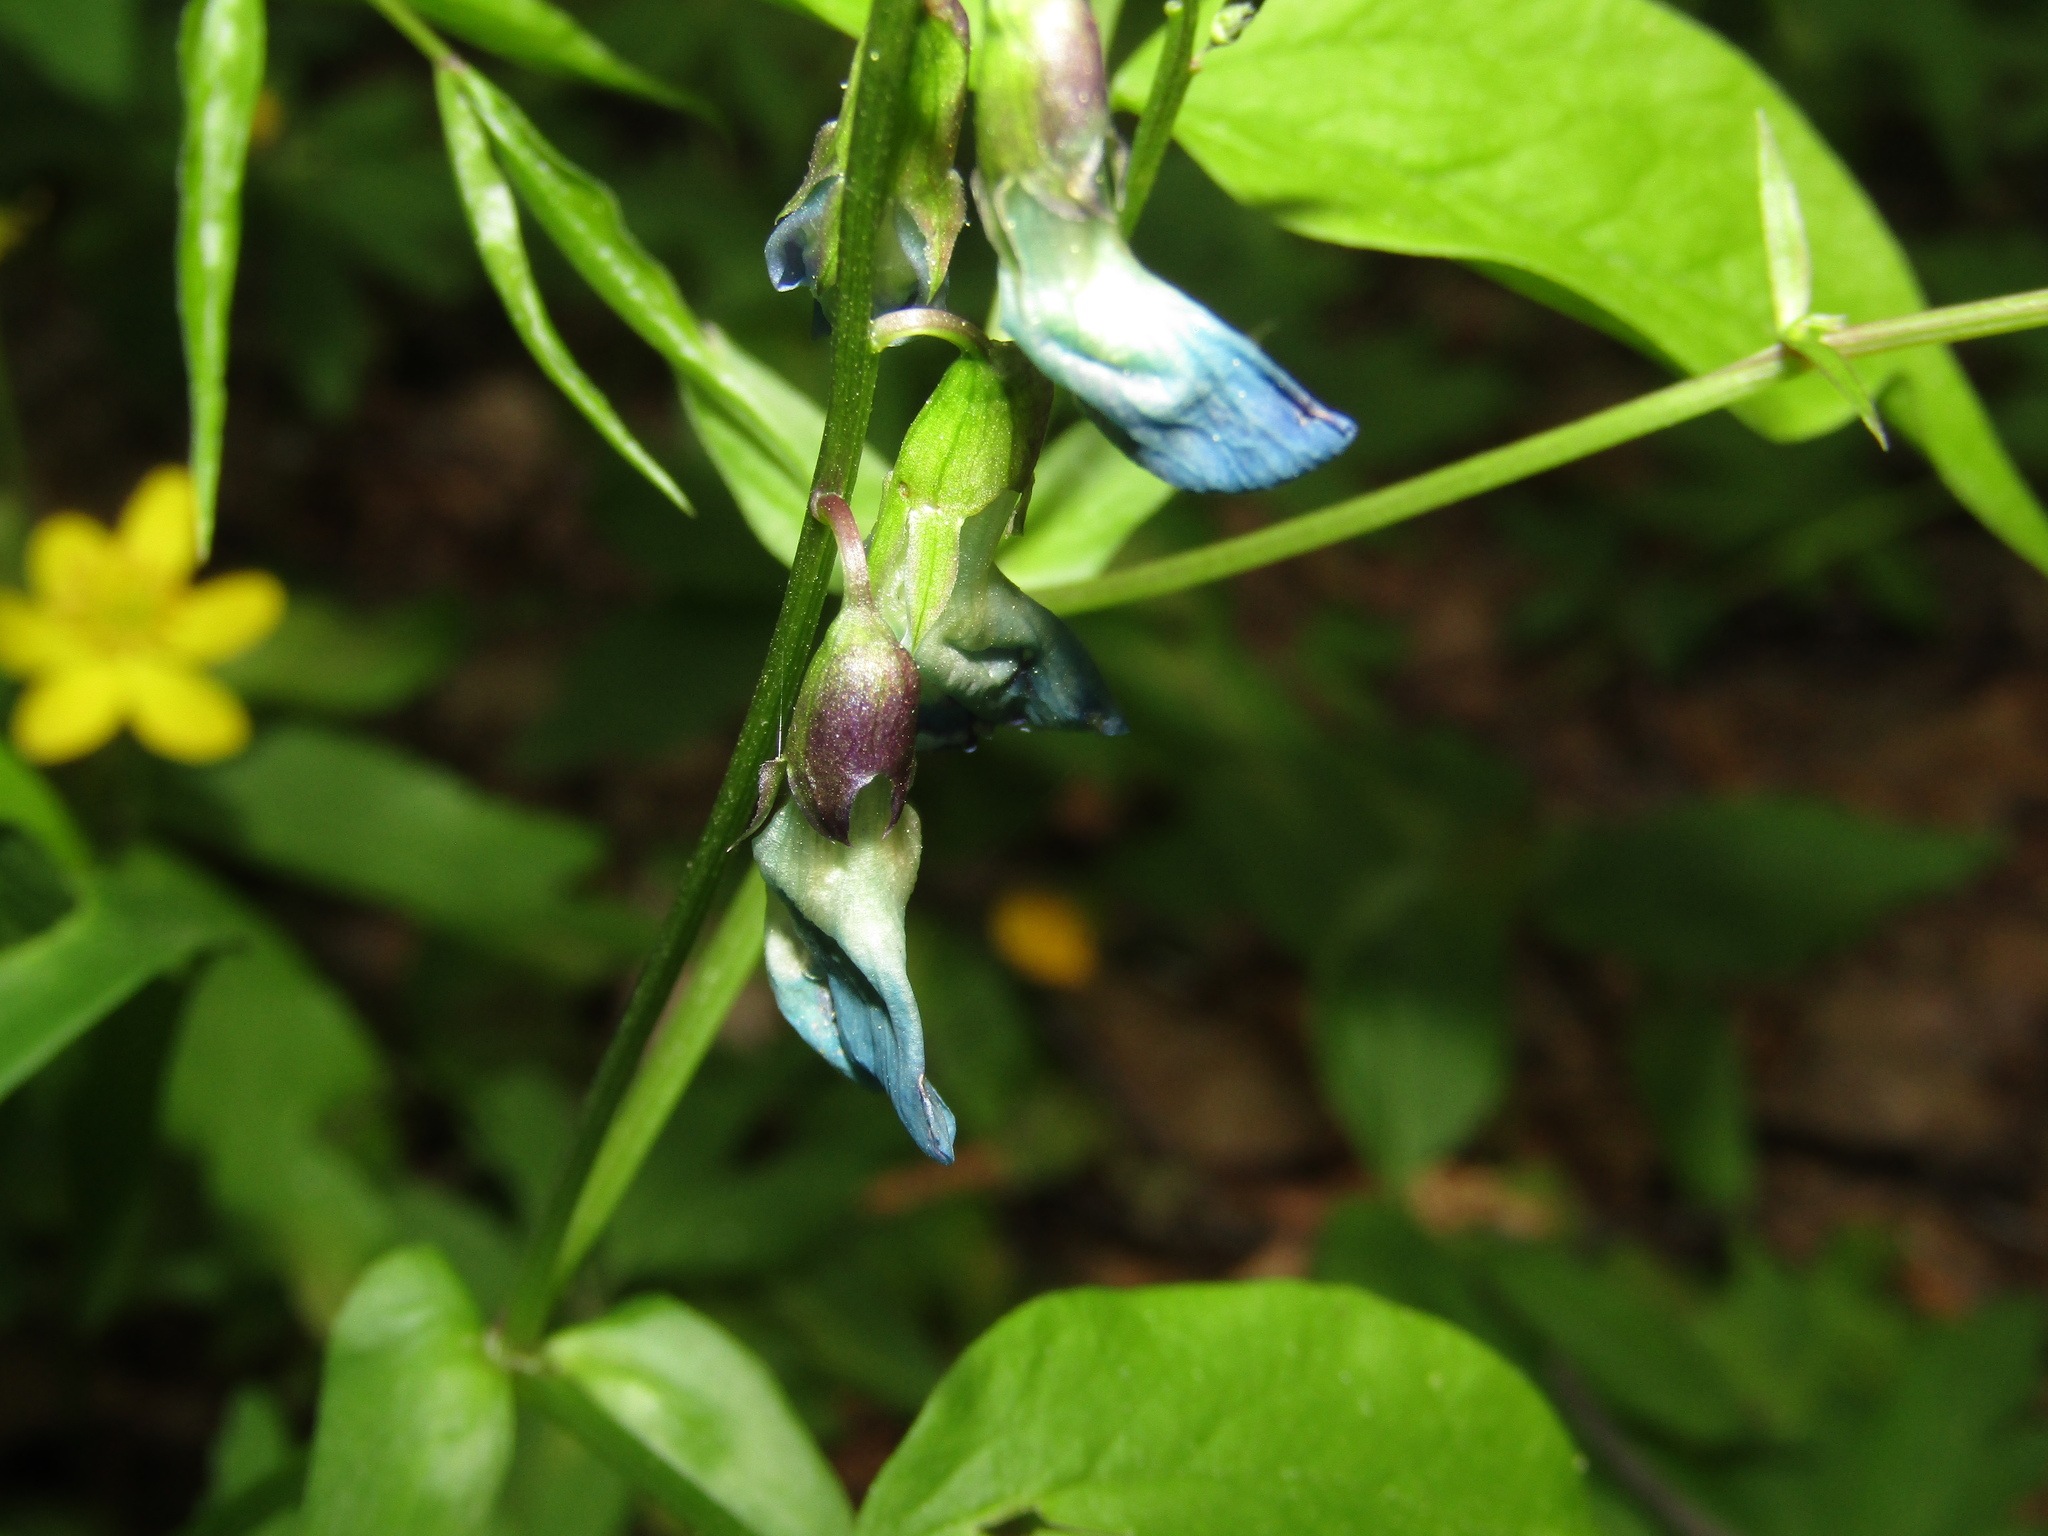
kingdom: Plantae
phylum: Tracheophyta
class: Magnoliopsida
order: Fabales
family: Fabaceae
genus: Lathyrus
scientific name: Lathyrus vernus
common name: Spring pea
